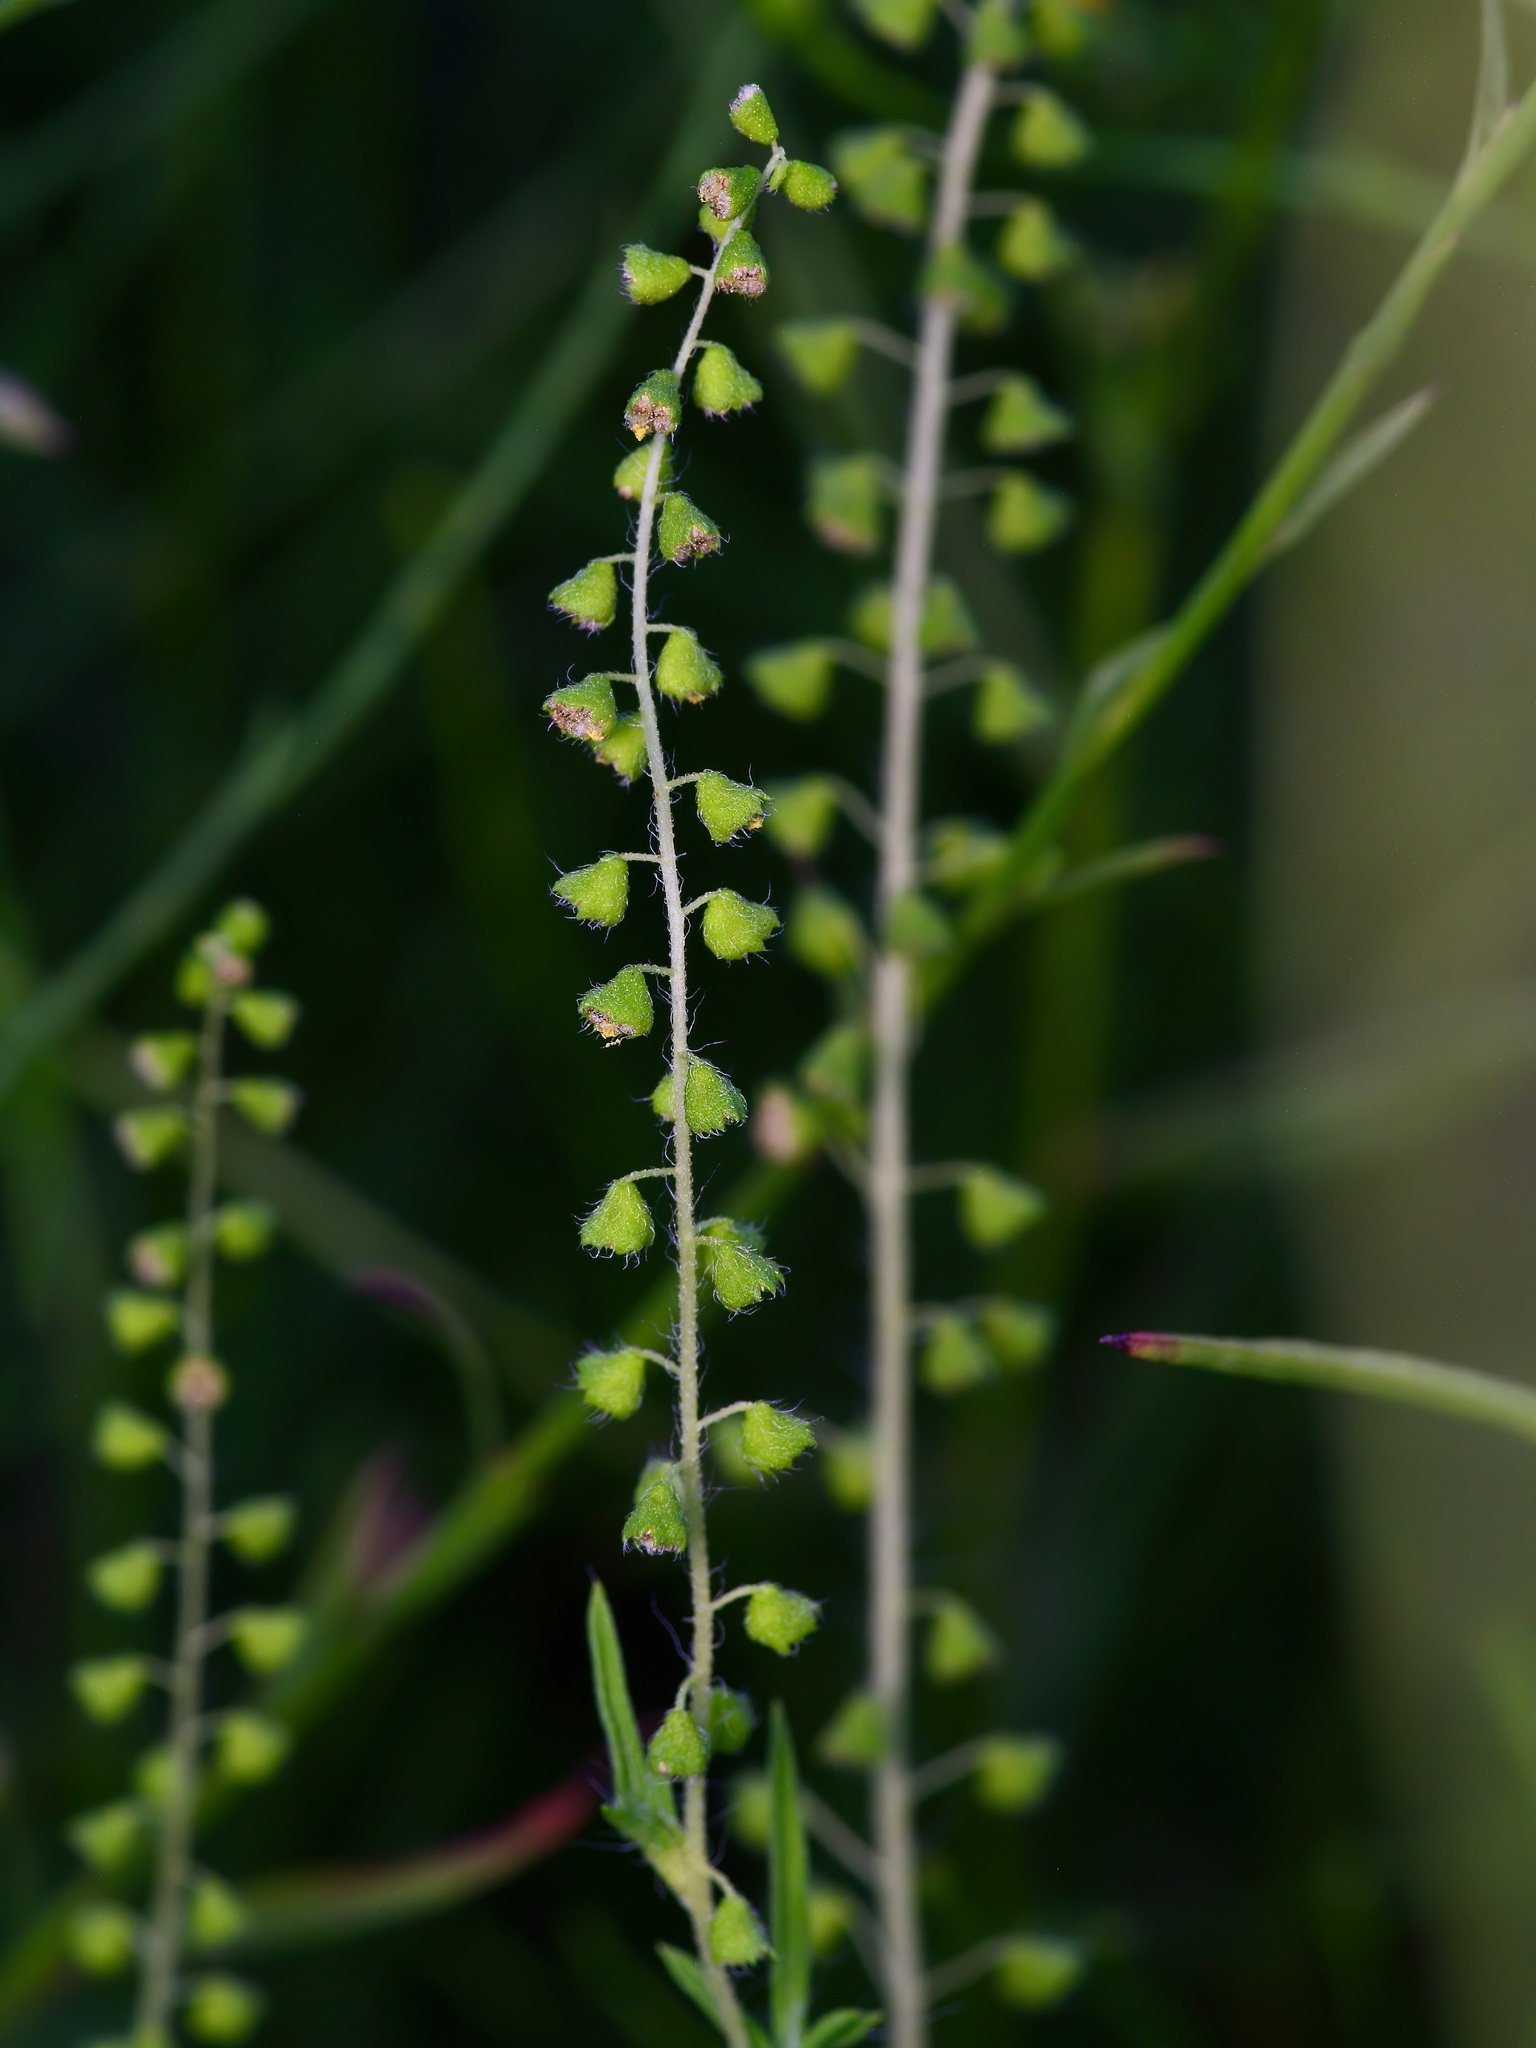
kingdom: Plantae
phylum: Tracheophyta
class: Magnoliopsida
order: Asterales
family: Asteraceae
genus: Ambrosia
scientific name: Ambrosia artemisiifolia
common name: Annual ragweed
